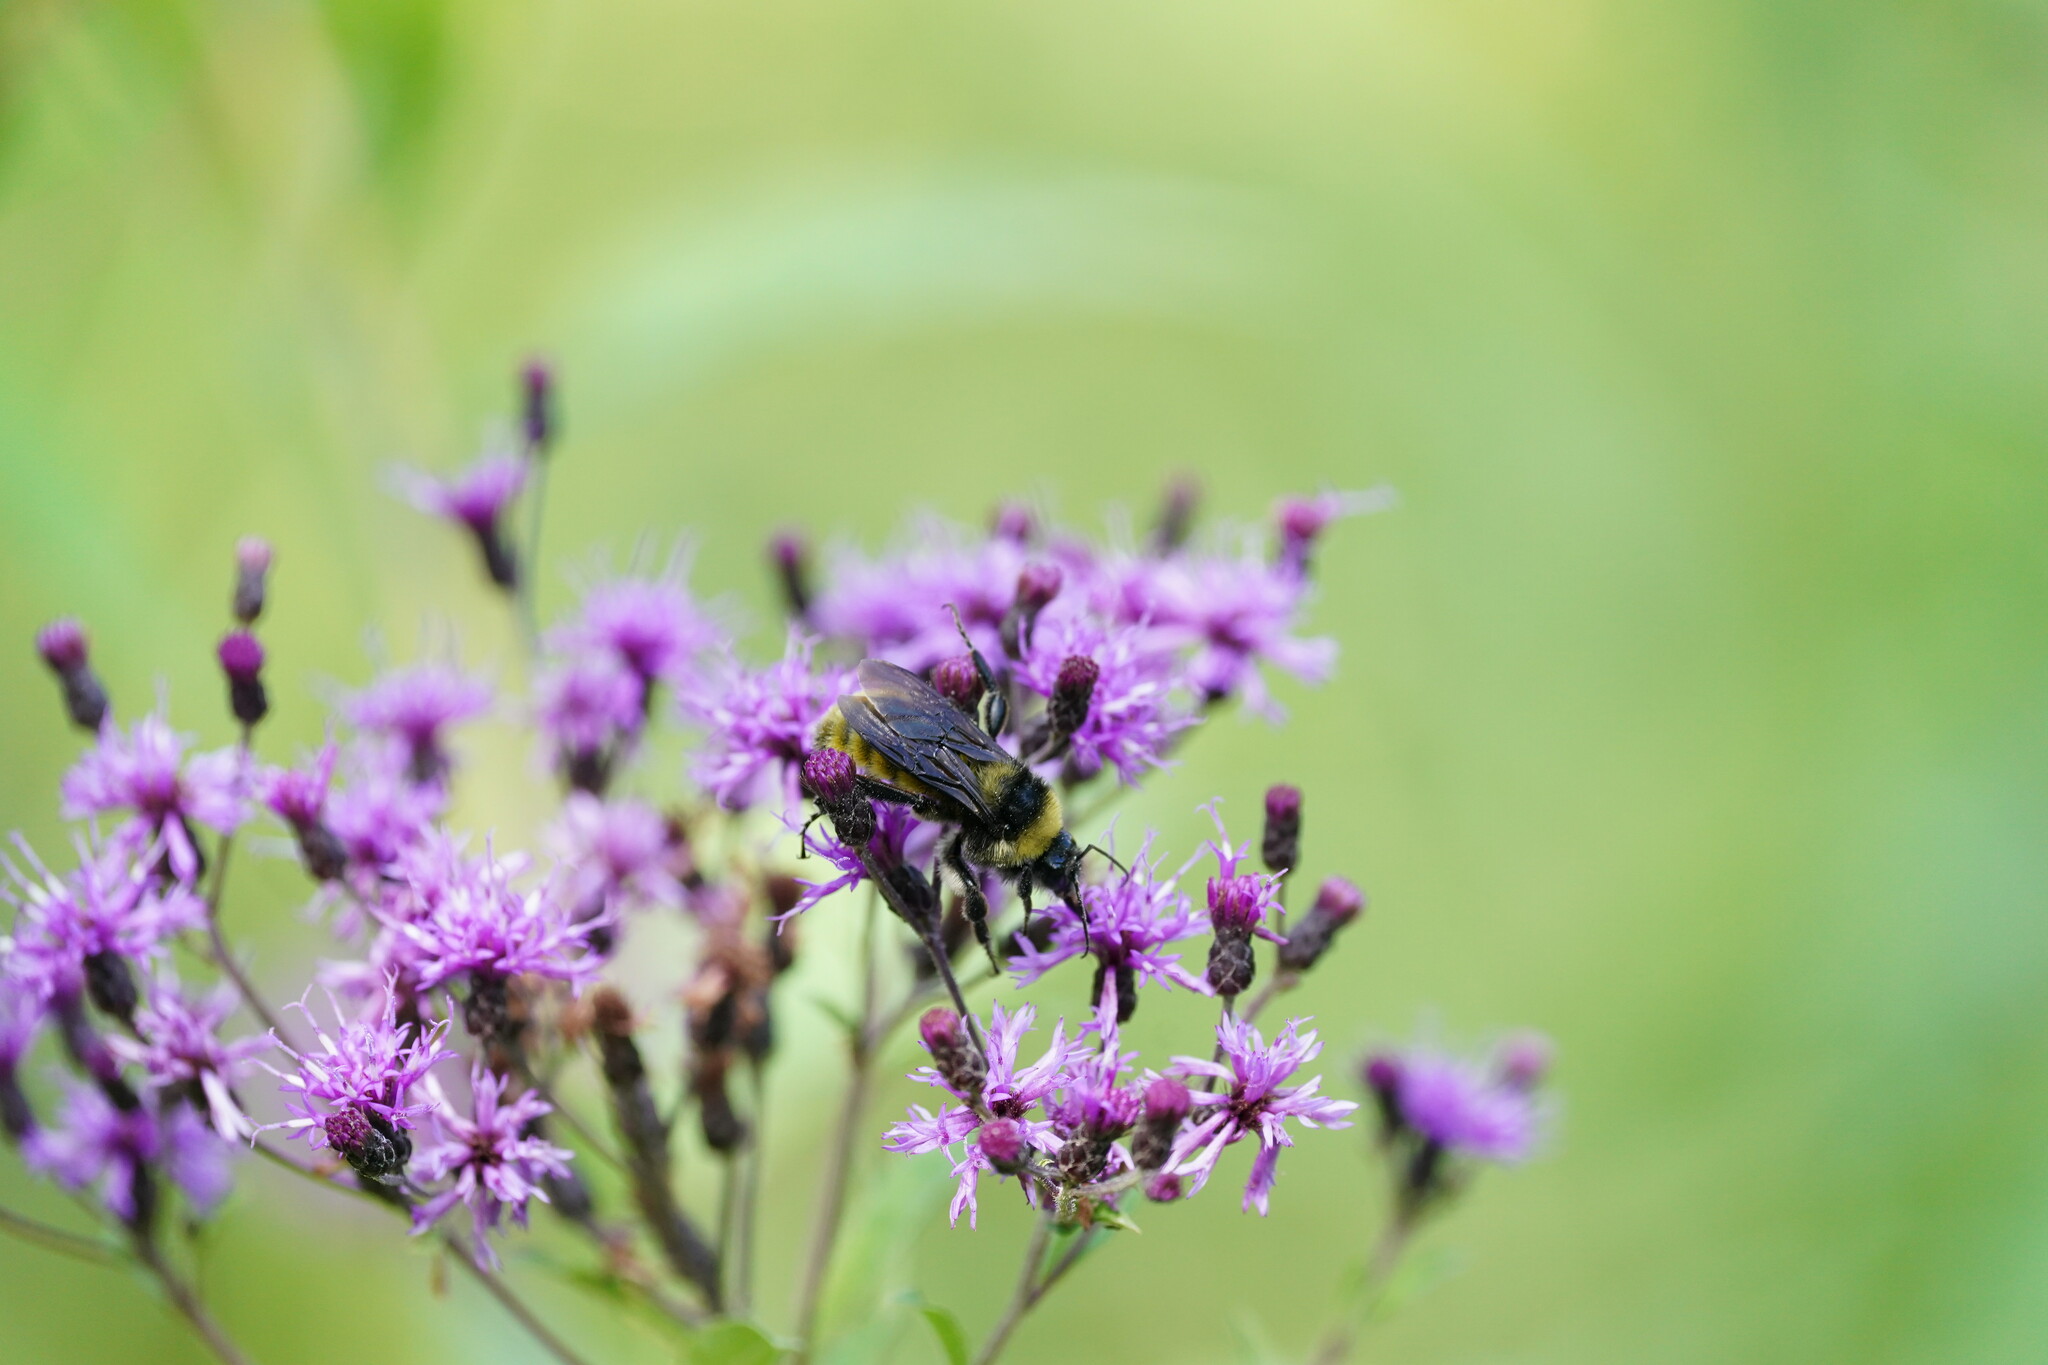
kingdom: Animalia
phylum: Arthropoda
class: Insecta
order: Hymenoptera
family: Apidae
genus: Bombus
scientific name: Bombus pensylvanicus
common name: Bumble bee
